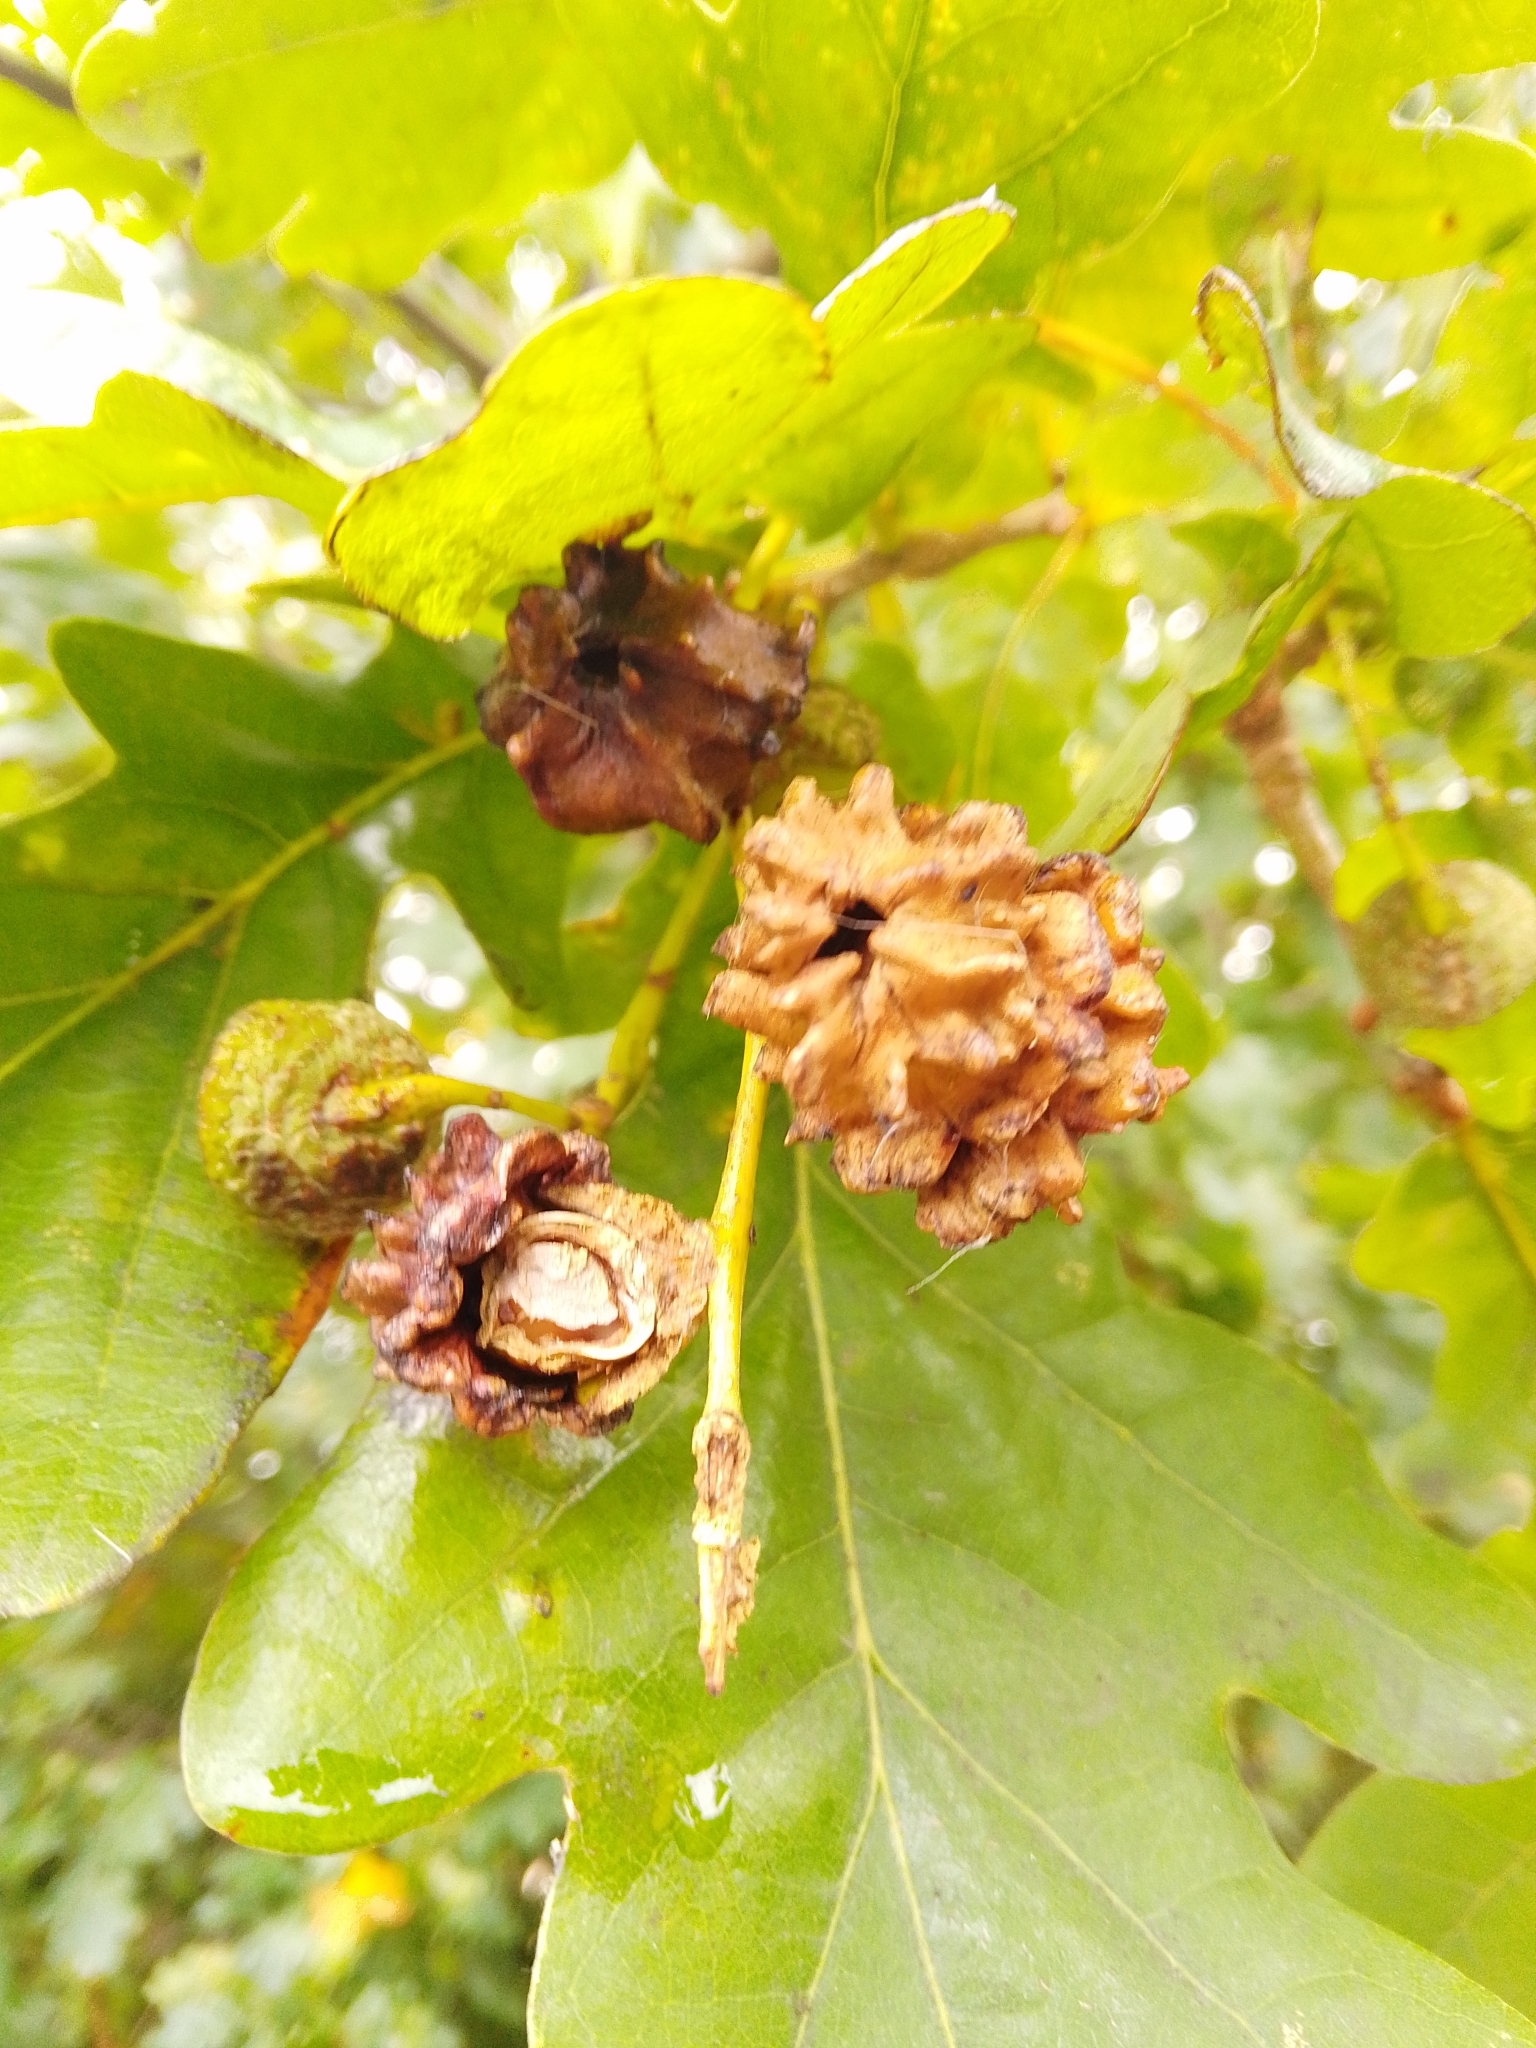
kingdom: Animalia
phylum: Arthropoda
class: Insecta
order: Hymenoptera
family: Cynipidae
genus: Andricus
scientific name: Andricus quercuscalicis
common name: Knopper gall
